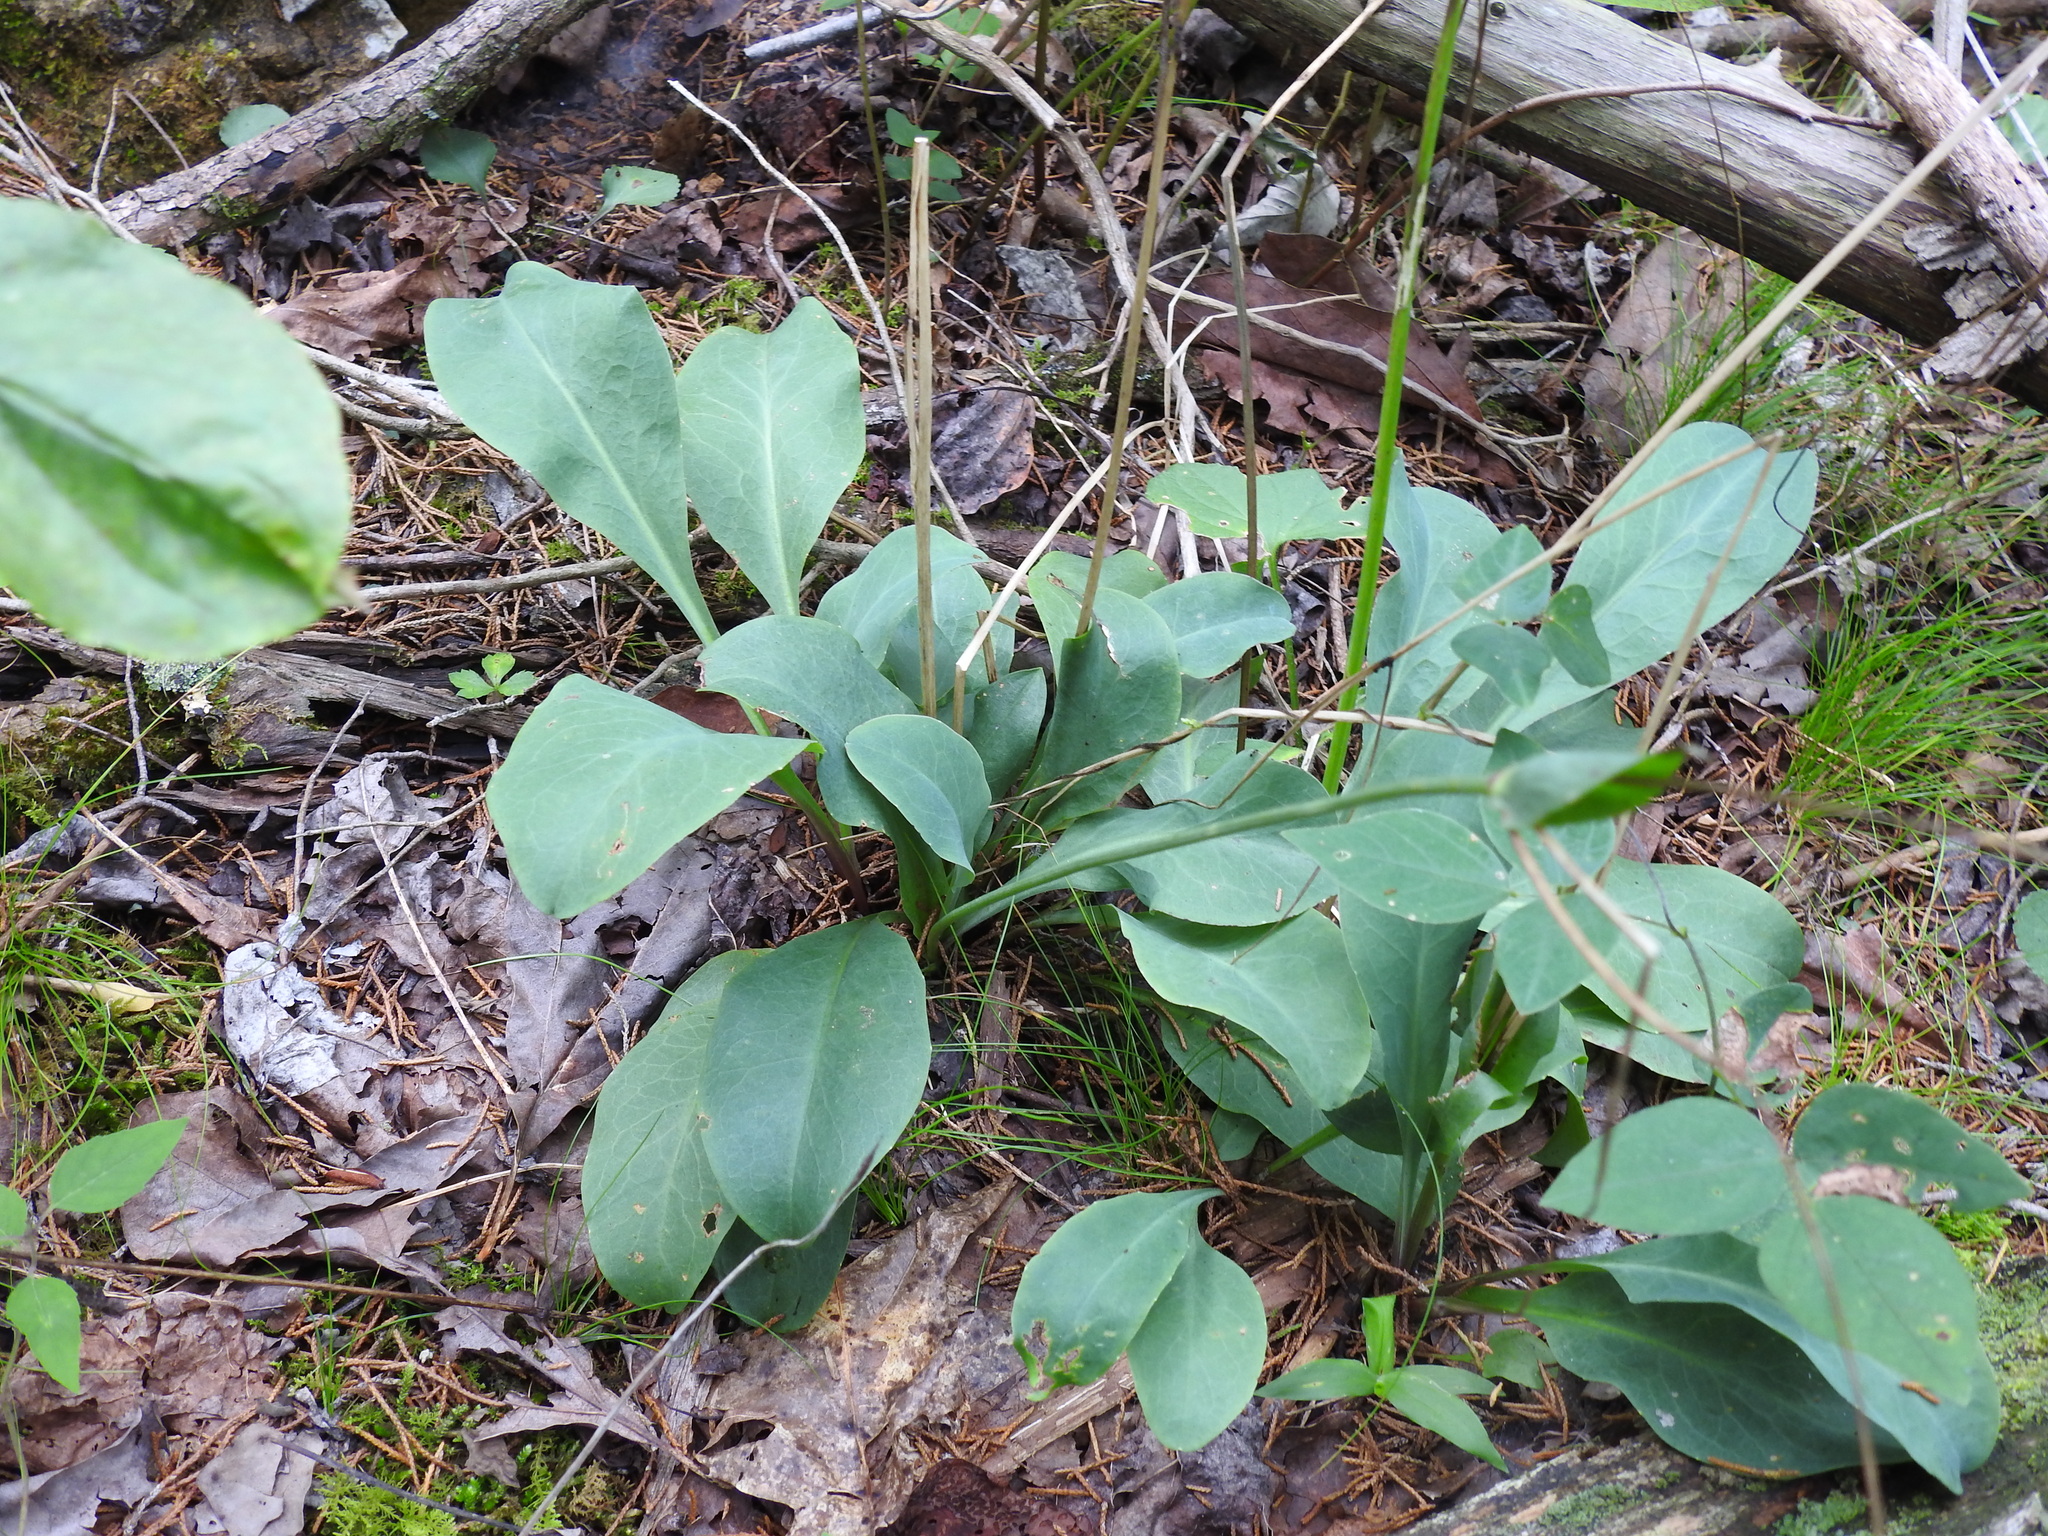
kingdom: Plantae
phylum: Tracheophyta
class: Magnoliopsida
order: Asterales
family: Asteraceae
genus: Krigia
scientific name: Krigia biflora
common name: Orange dwarf-dandelion
